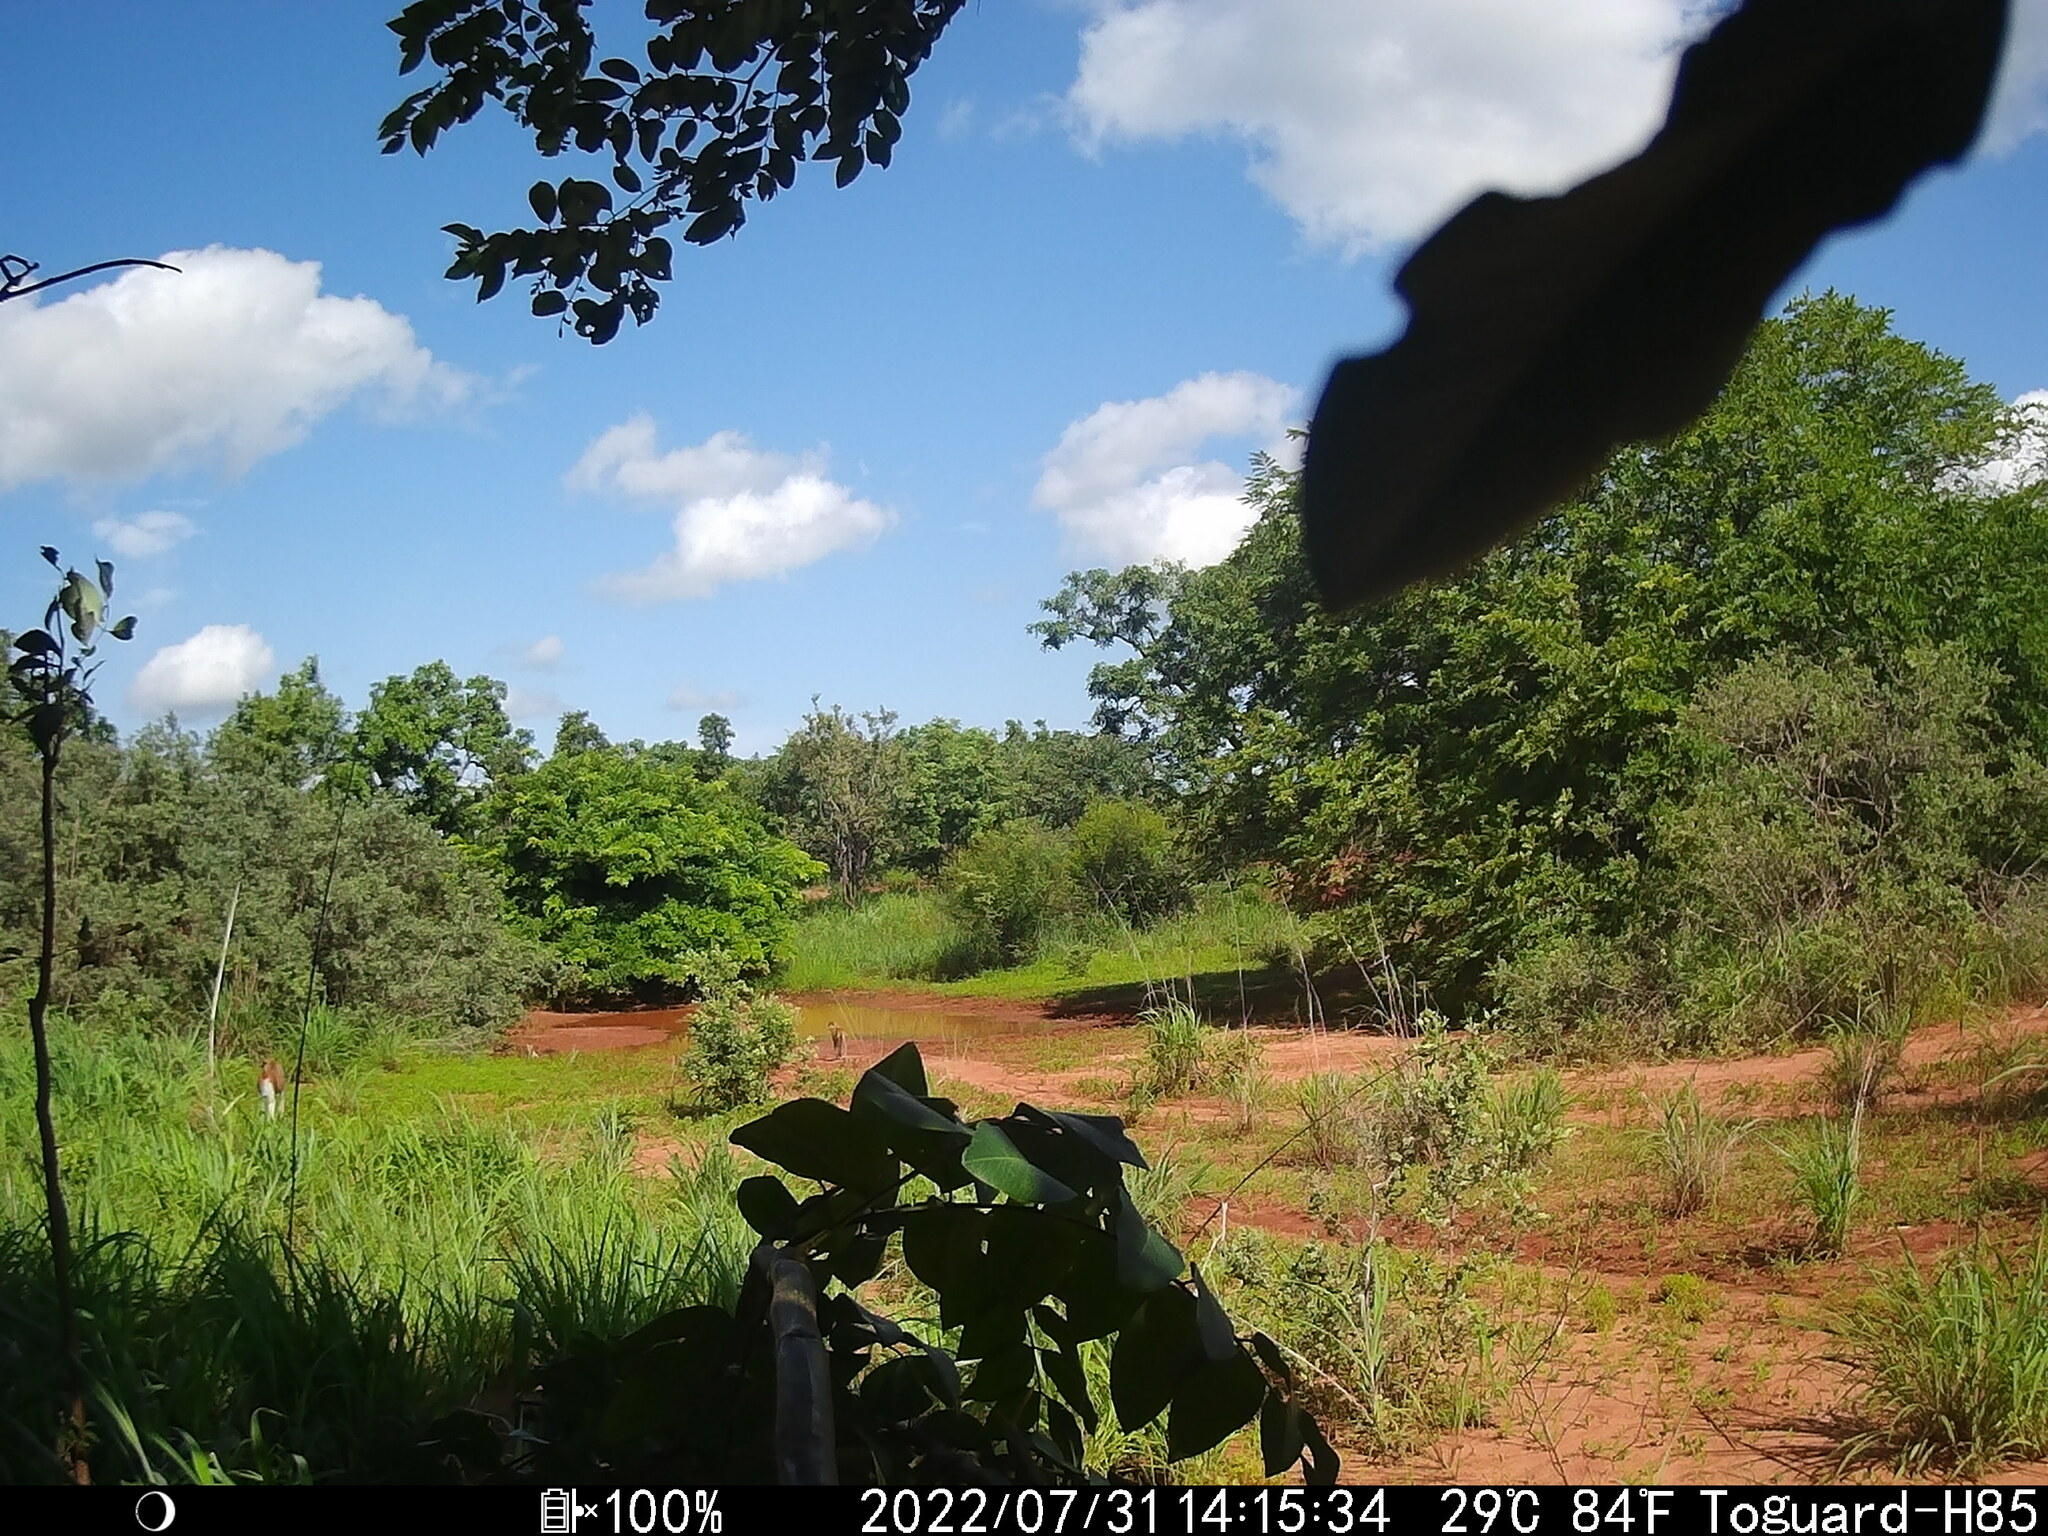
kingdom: Animalia
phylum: Chordata
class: Mammalia
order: Primates
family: Cercopithecidae
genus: Erythrocebus
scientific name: Erythrocebus patas
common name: Patas monkey
